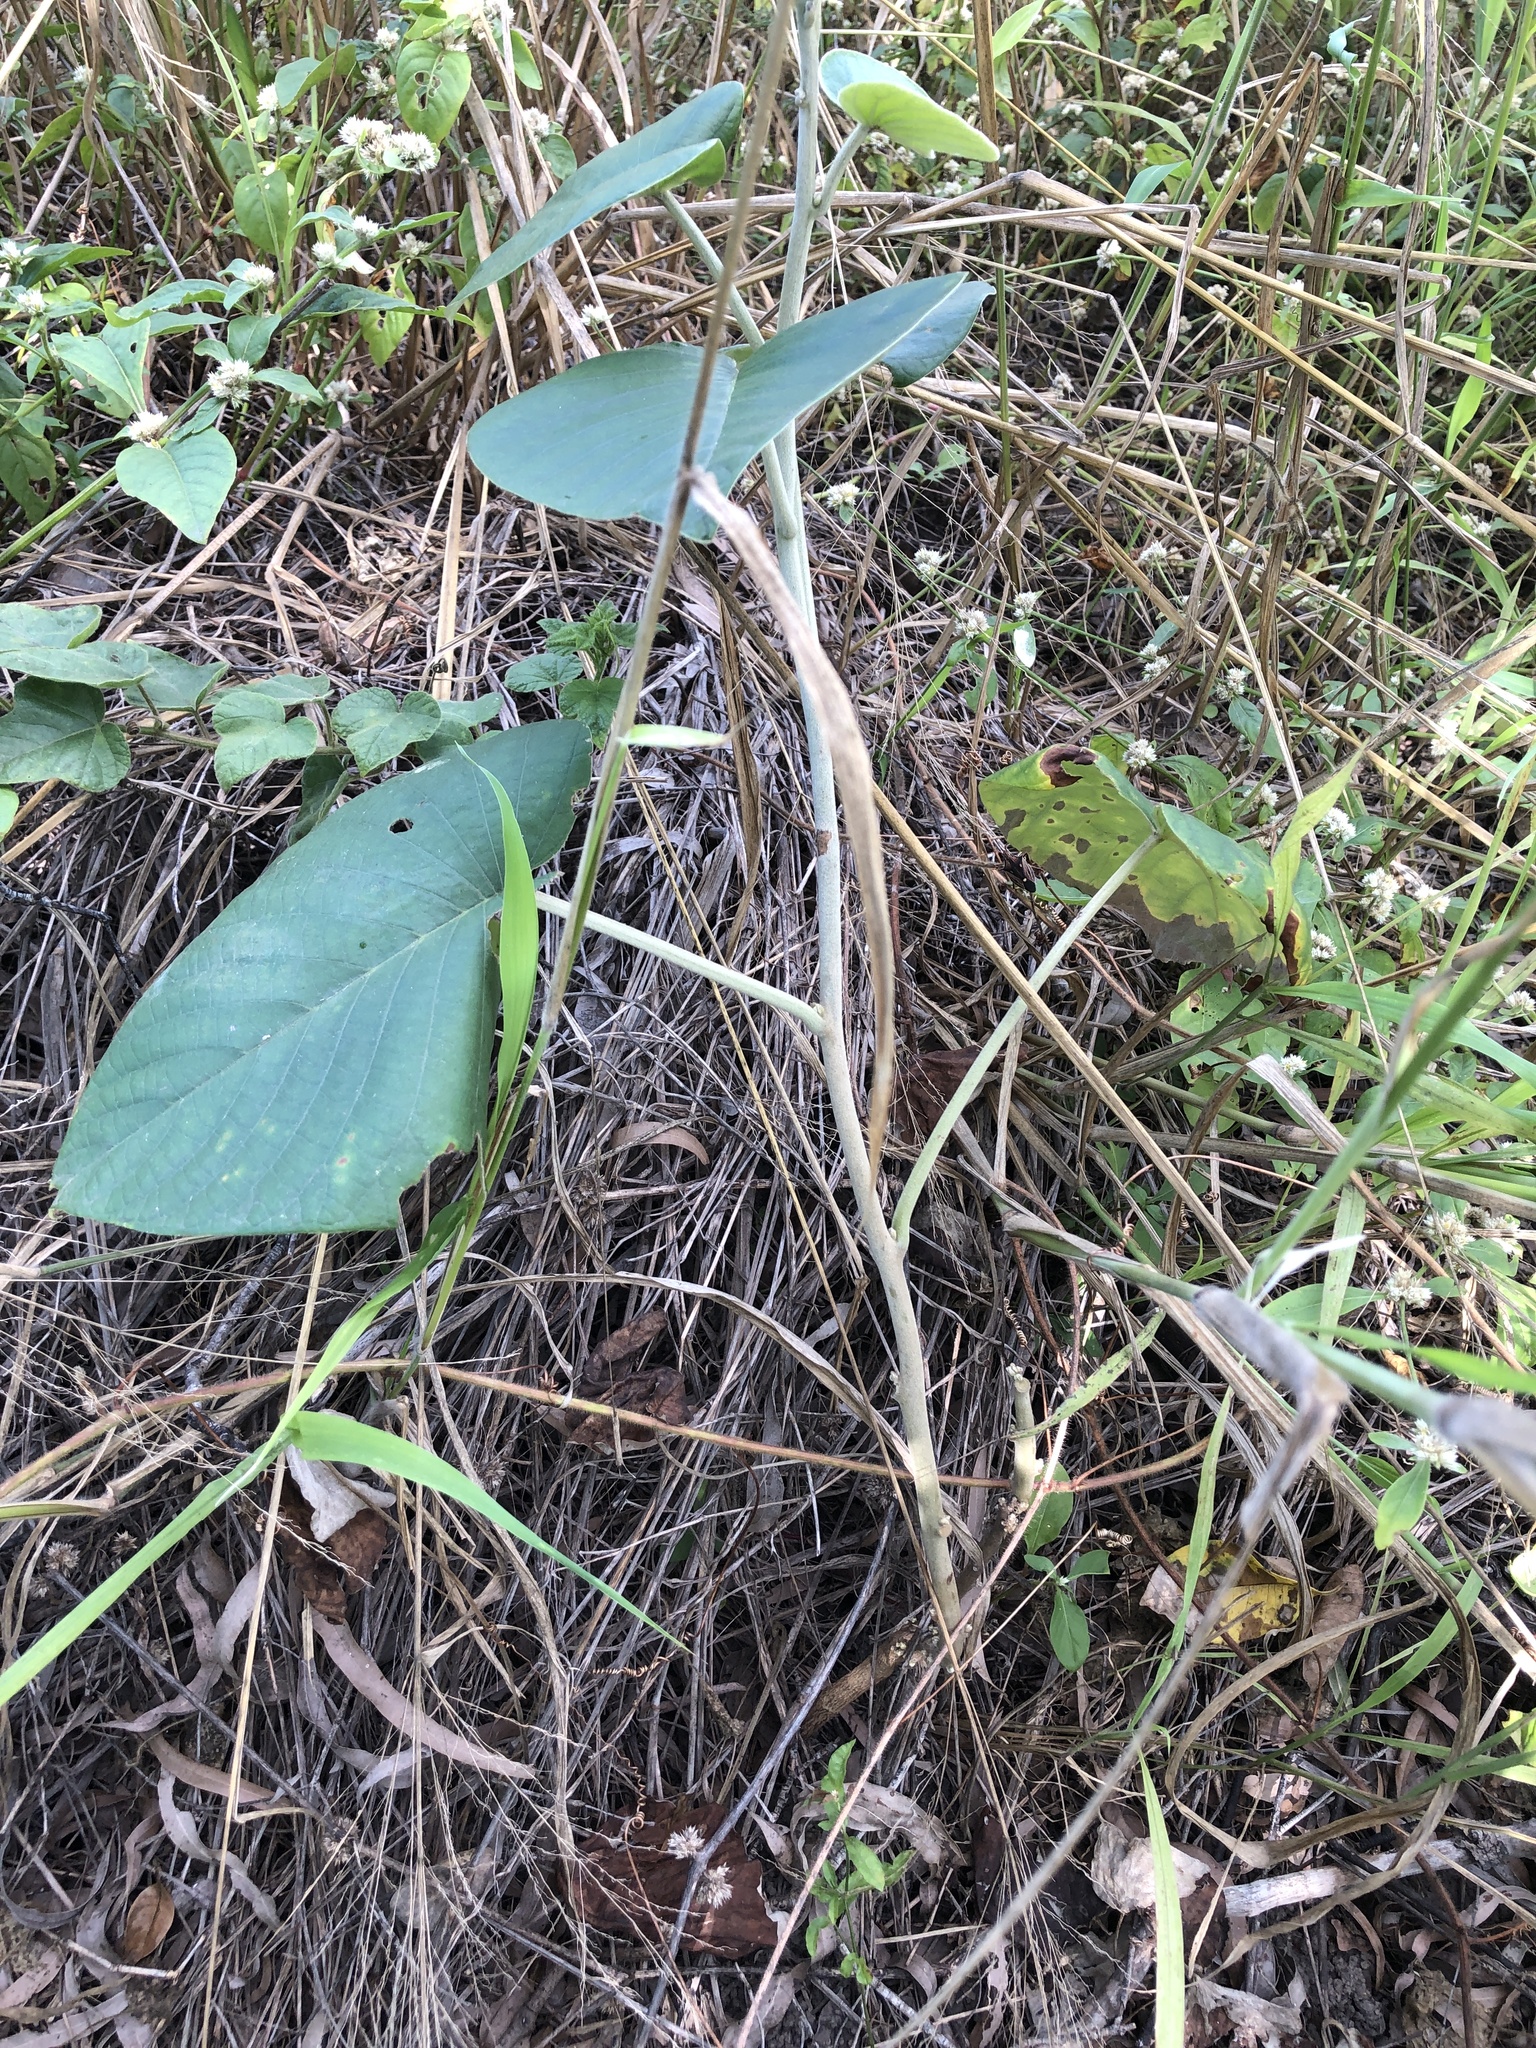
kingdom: Plantae
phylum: Tracheophyta
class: Magnoliopsida
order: Solanales
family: Convolvulaceae
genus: Argyreia
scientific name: Argyreia nervosa
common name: Elephant creeper
